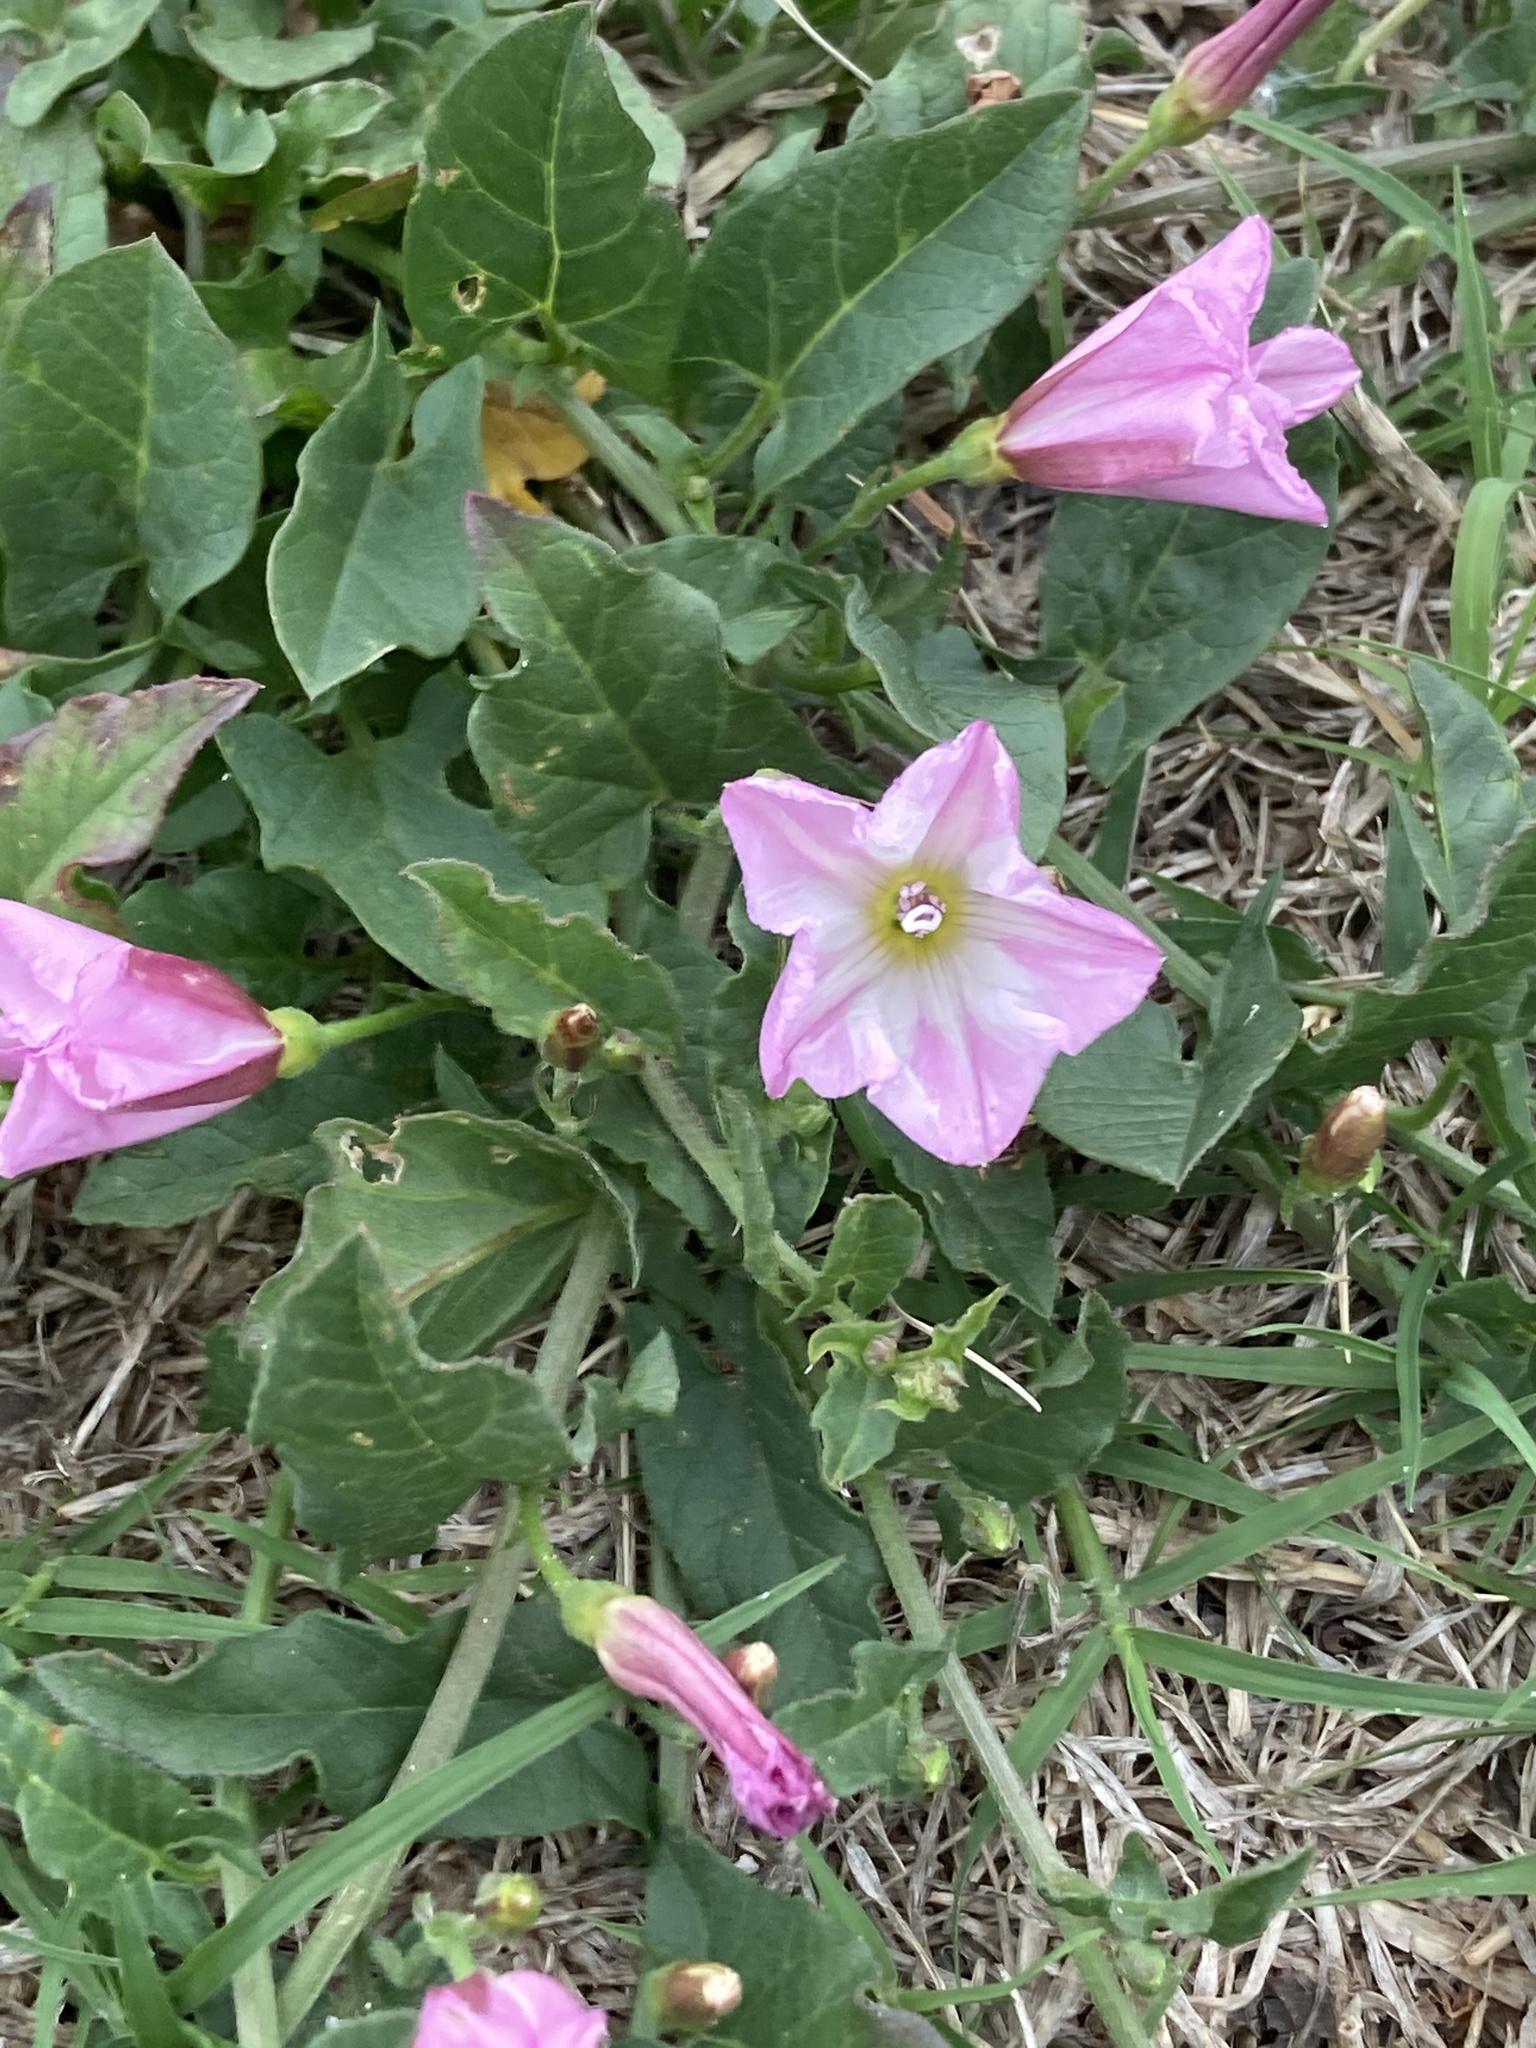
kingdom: Plantae
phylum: Tracheophyta
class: Magnoliopsida
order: Solanales
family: Convolvulaceae
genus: Convolvulus
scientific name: Convolvulus arvensis
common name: Field bindweed
